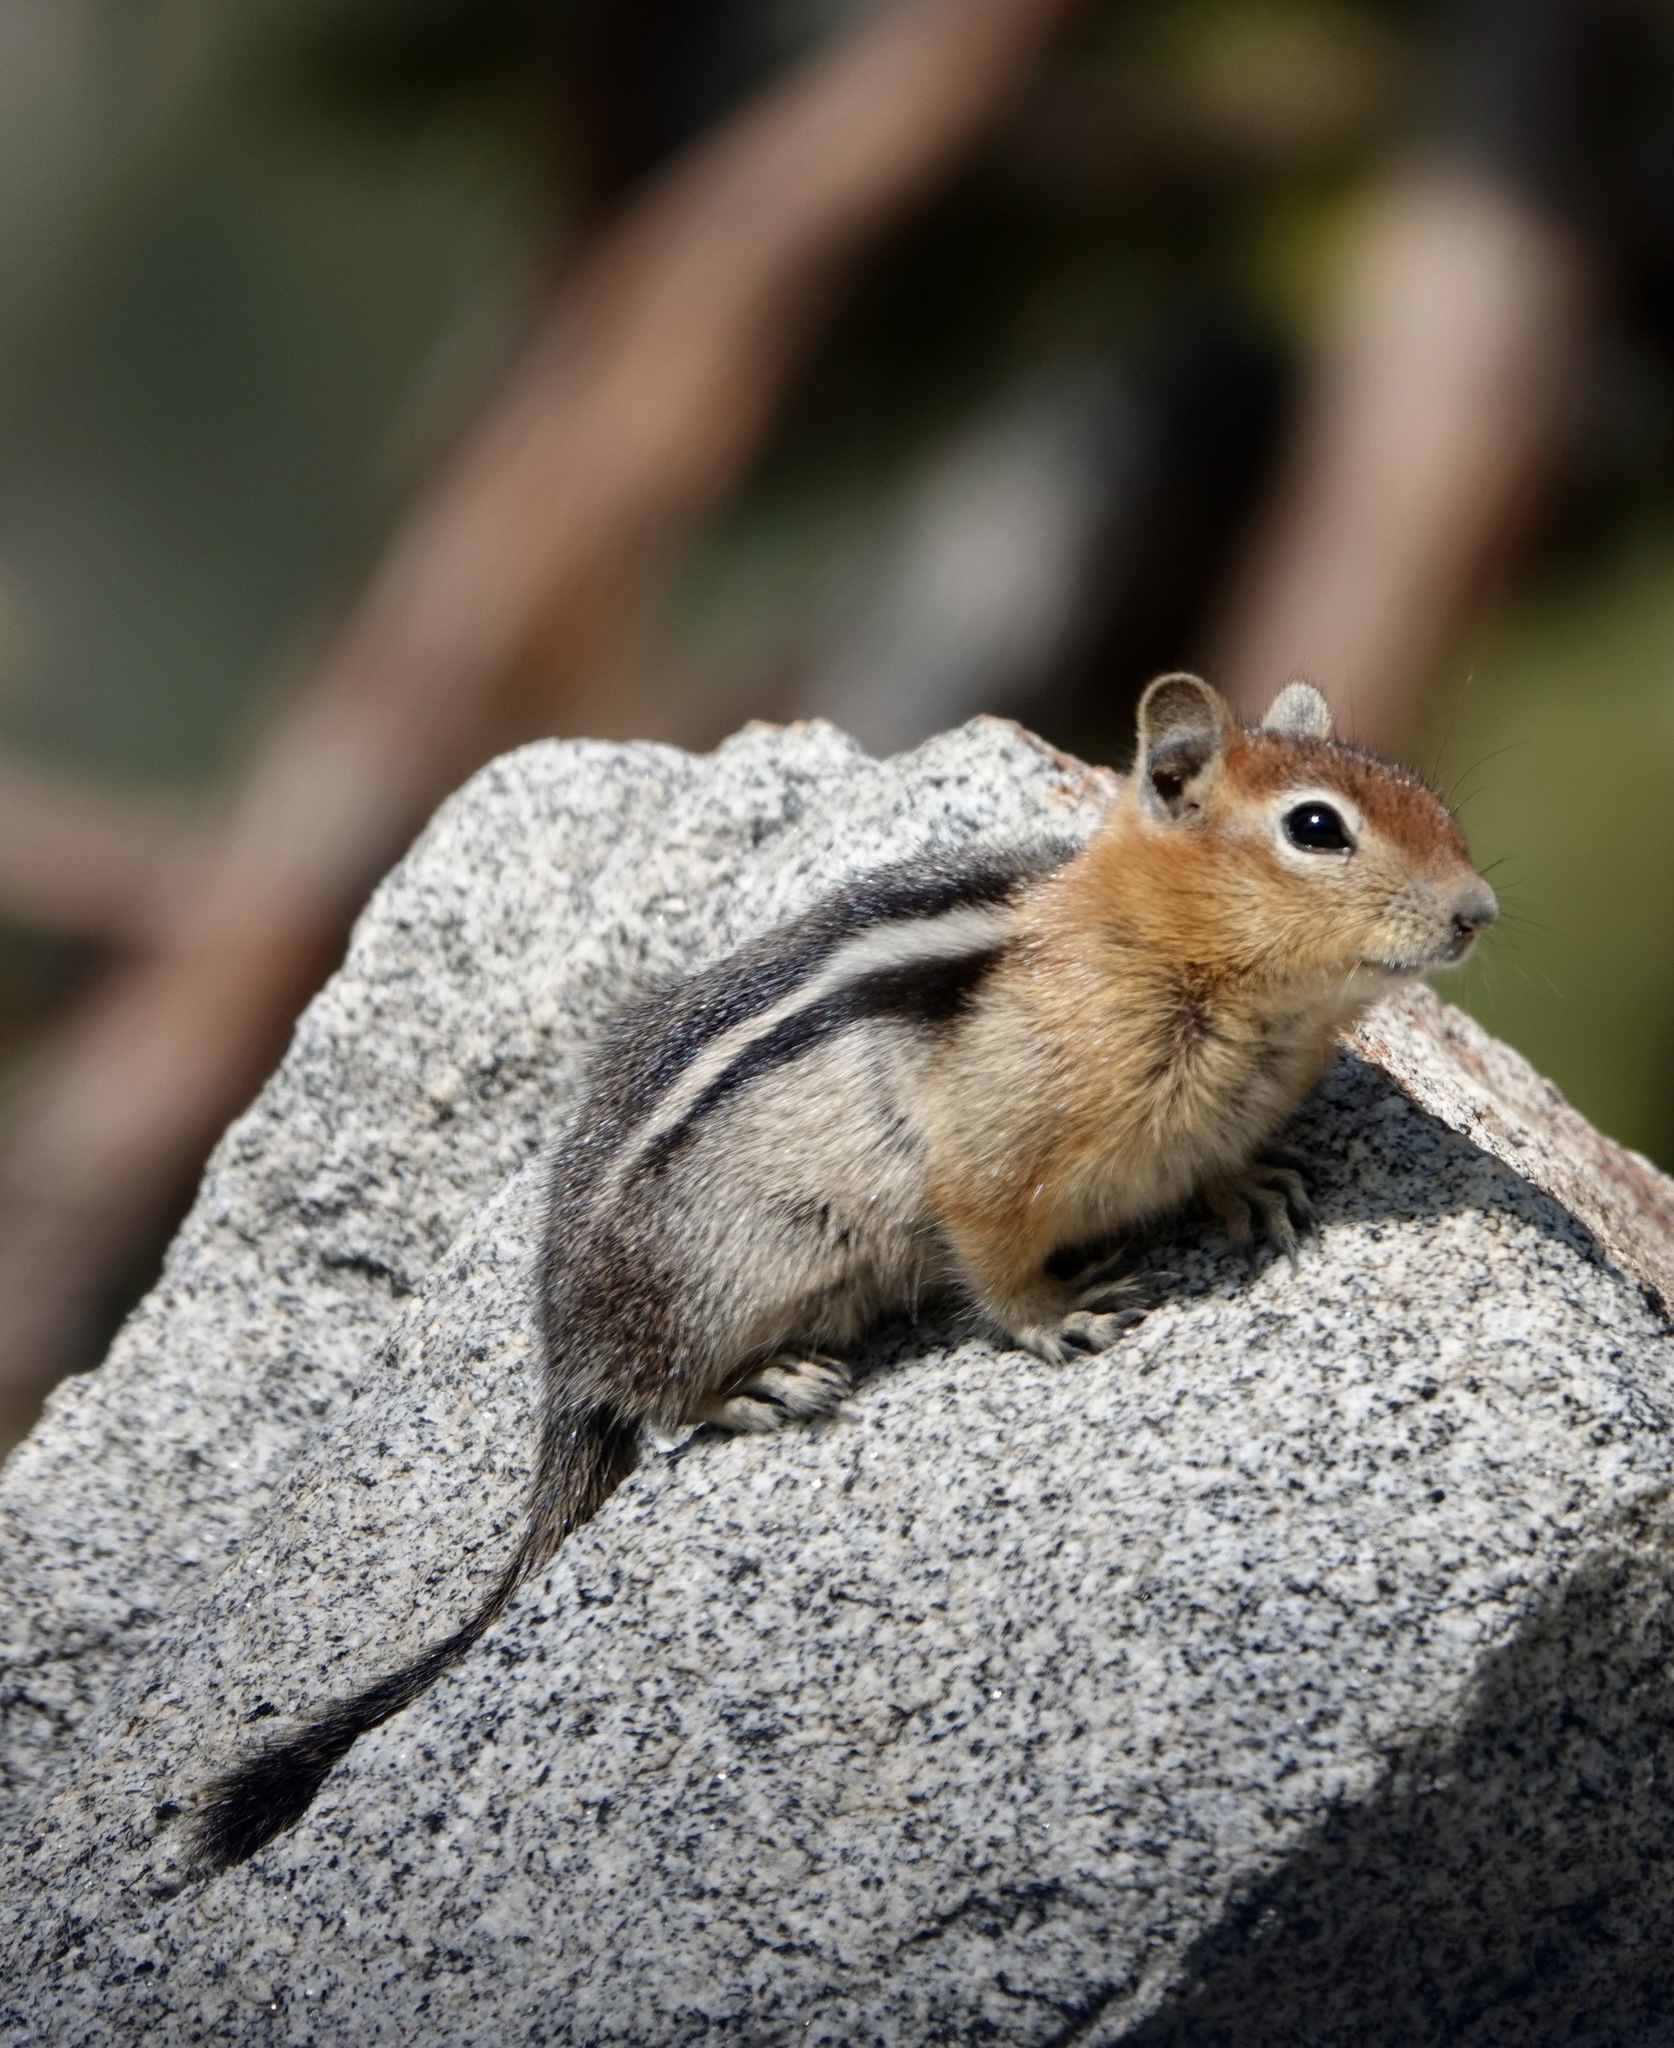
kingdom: Animalia
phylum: Chordata
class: Mammalia
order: Rodentia
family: Sciuridae
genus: Callospermophilus
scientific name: Callospermophilus lateralis
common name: Golden-mantled ground squirrel
